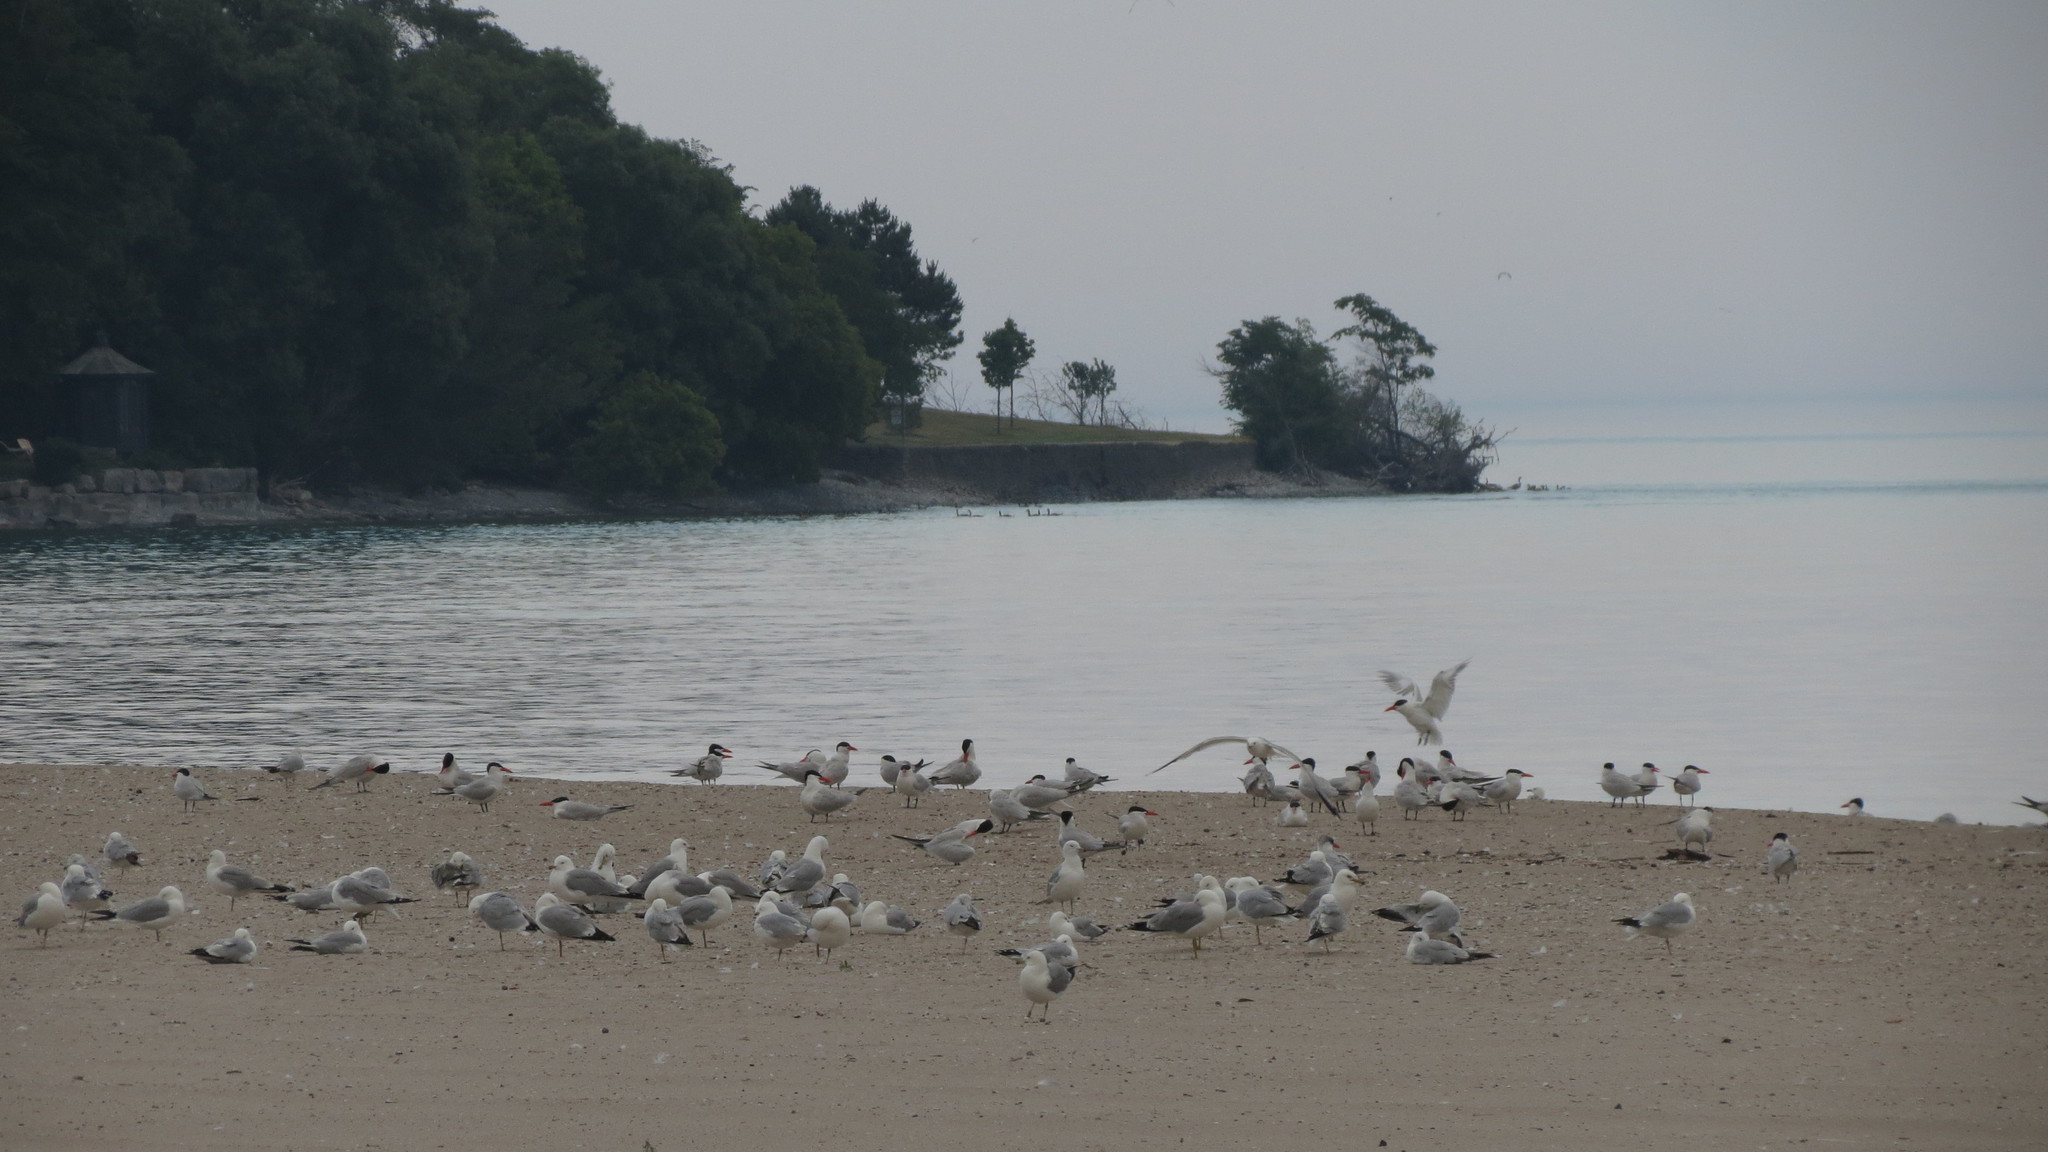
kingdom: Animalia
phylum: Chordata
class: Aves
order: Charadriiformes
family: Laridae
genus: Hydroprogne
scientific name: Hydroprogne caspia
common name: Caspian tern
